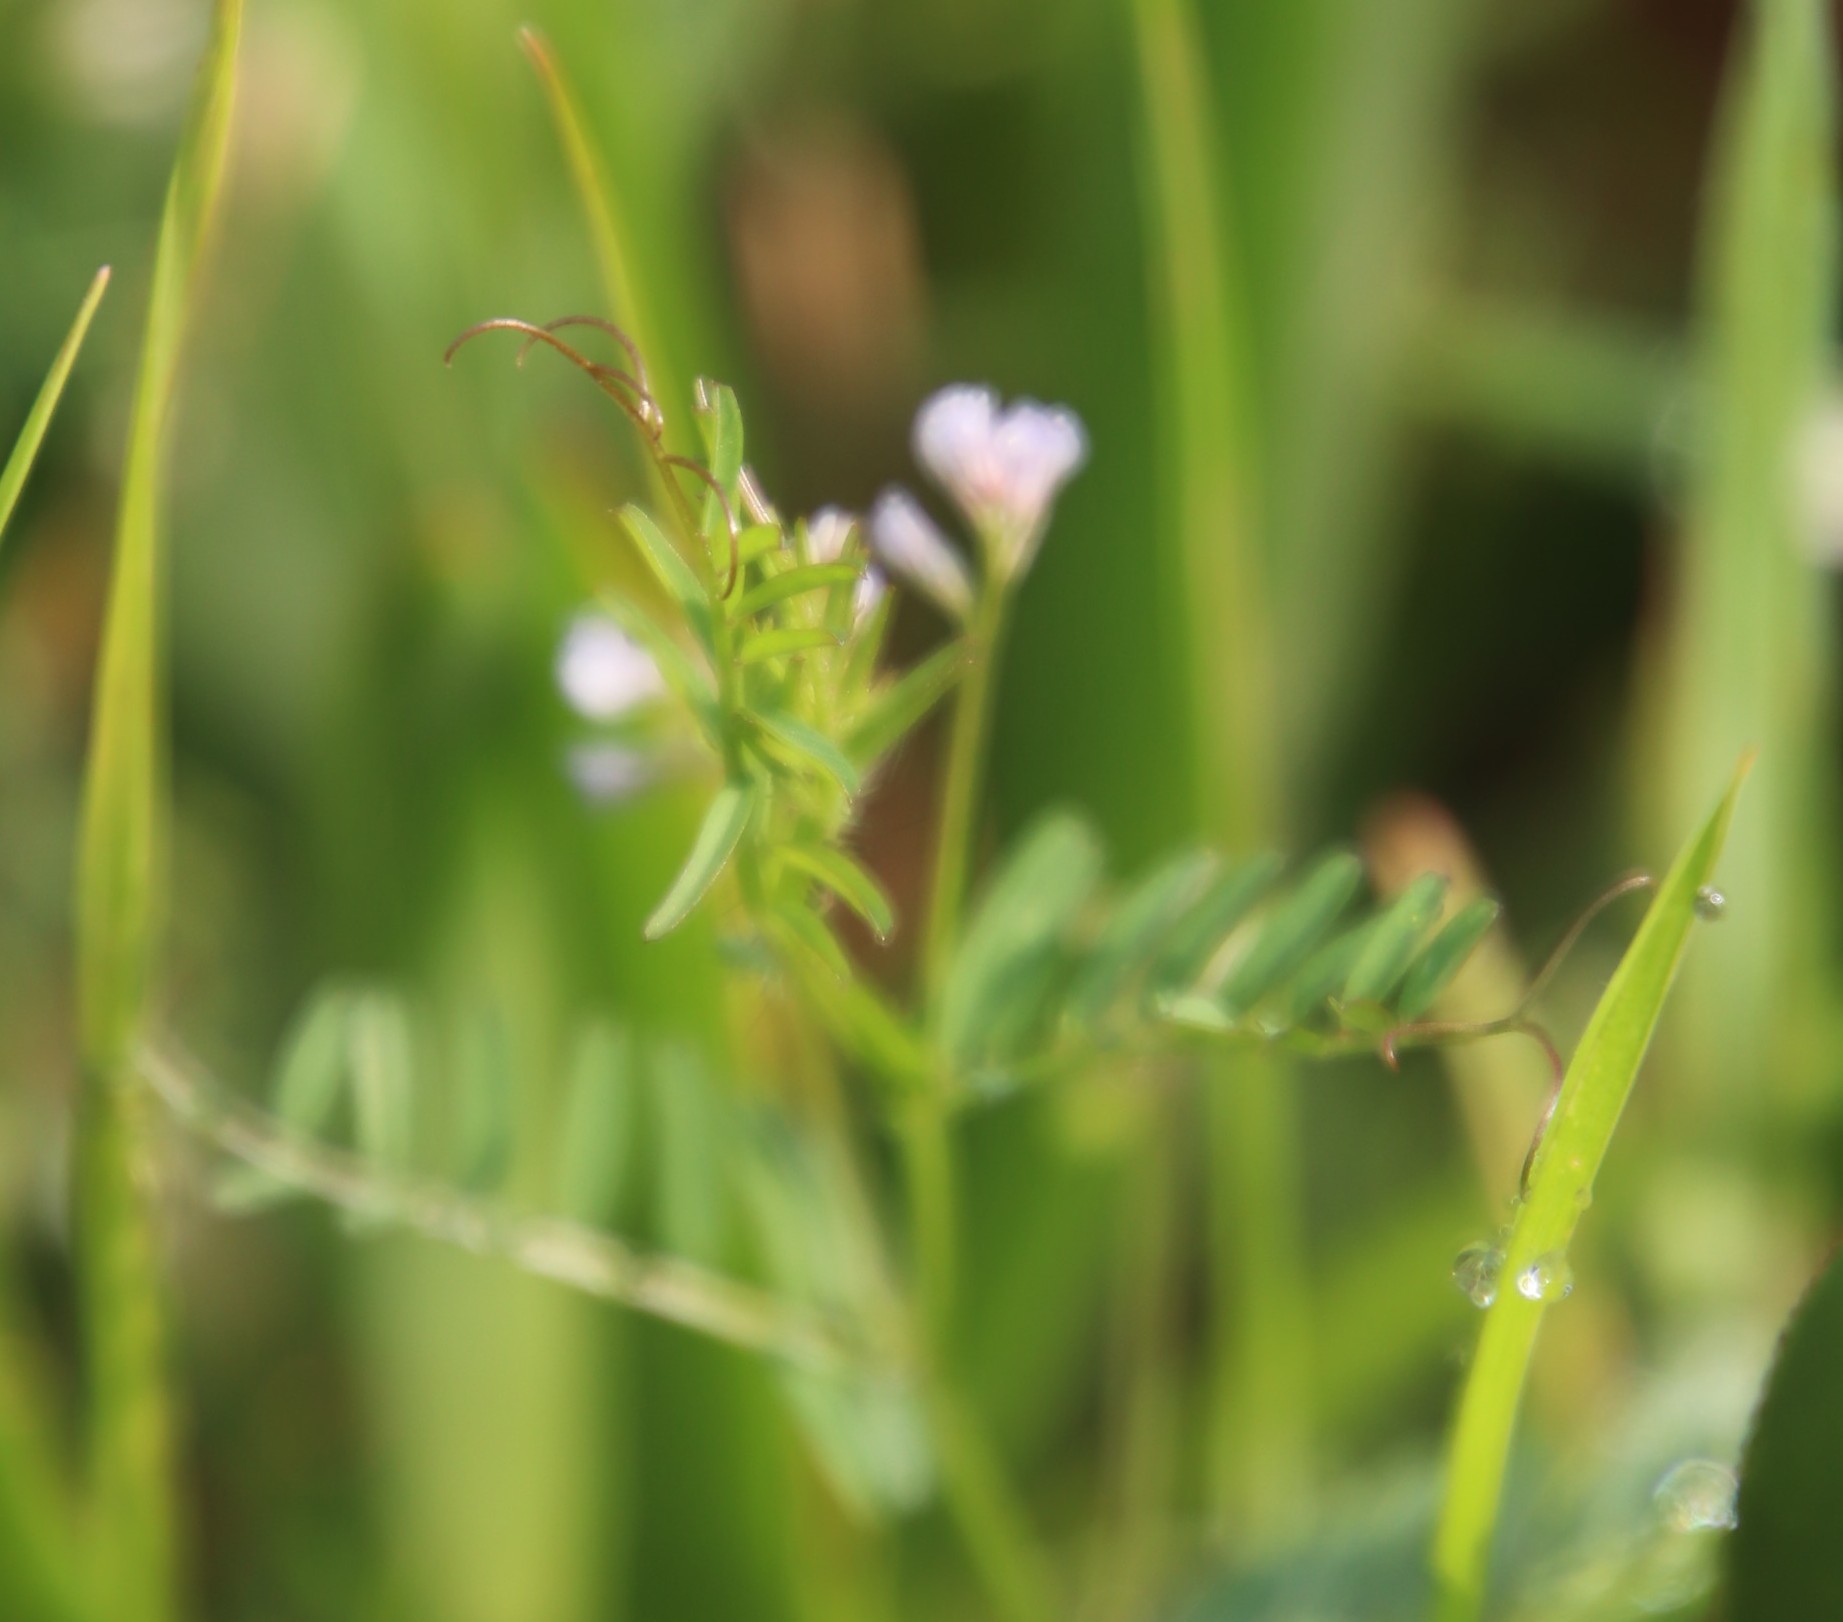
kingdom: Plantae
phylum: Tracheophyta
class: Magnoliopsida
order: Fabales
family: Fabaceae
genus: Vicia
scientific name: Vicia hirsuta
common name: Tiny vetch
